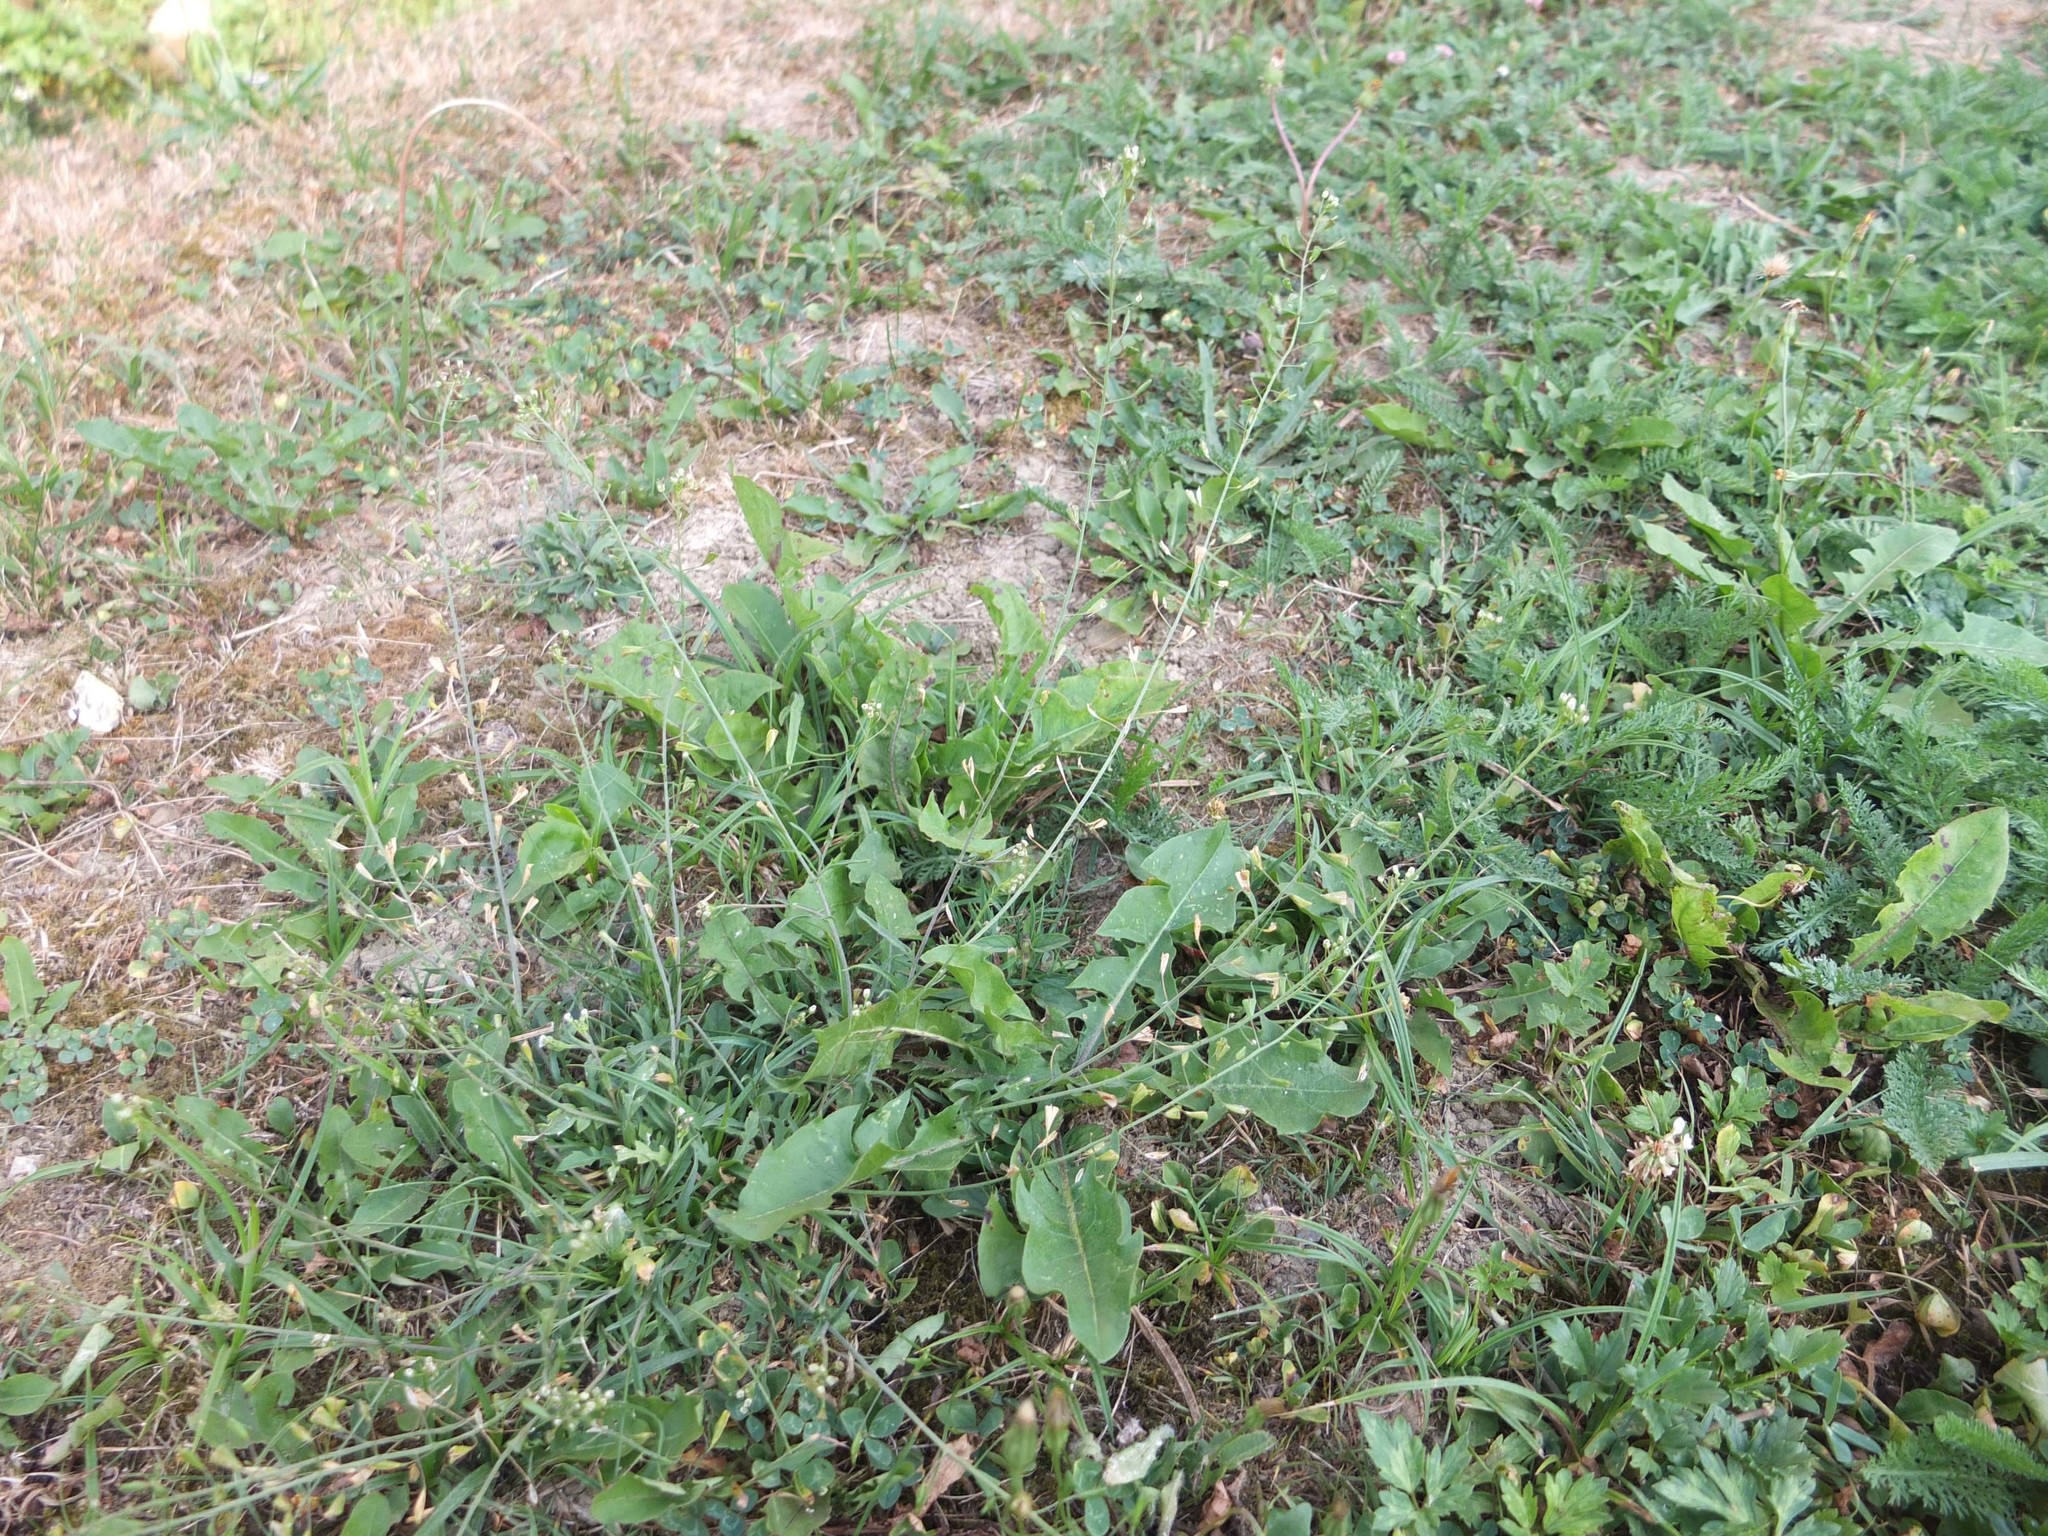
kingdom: Plantae
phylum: Tracheophyta
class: Magnoliopsida
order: Brassicales
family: Brassicaceae
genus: Capsella
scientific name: Capsella bursa-pastoris
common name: Shepherd's purse
